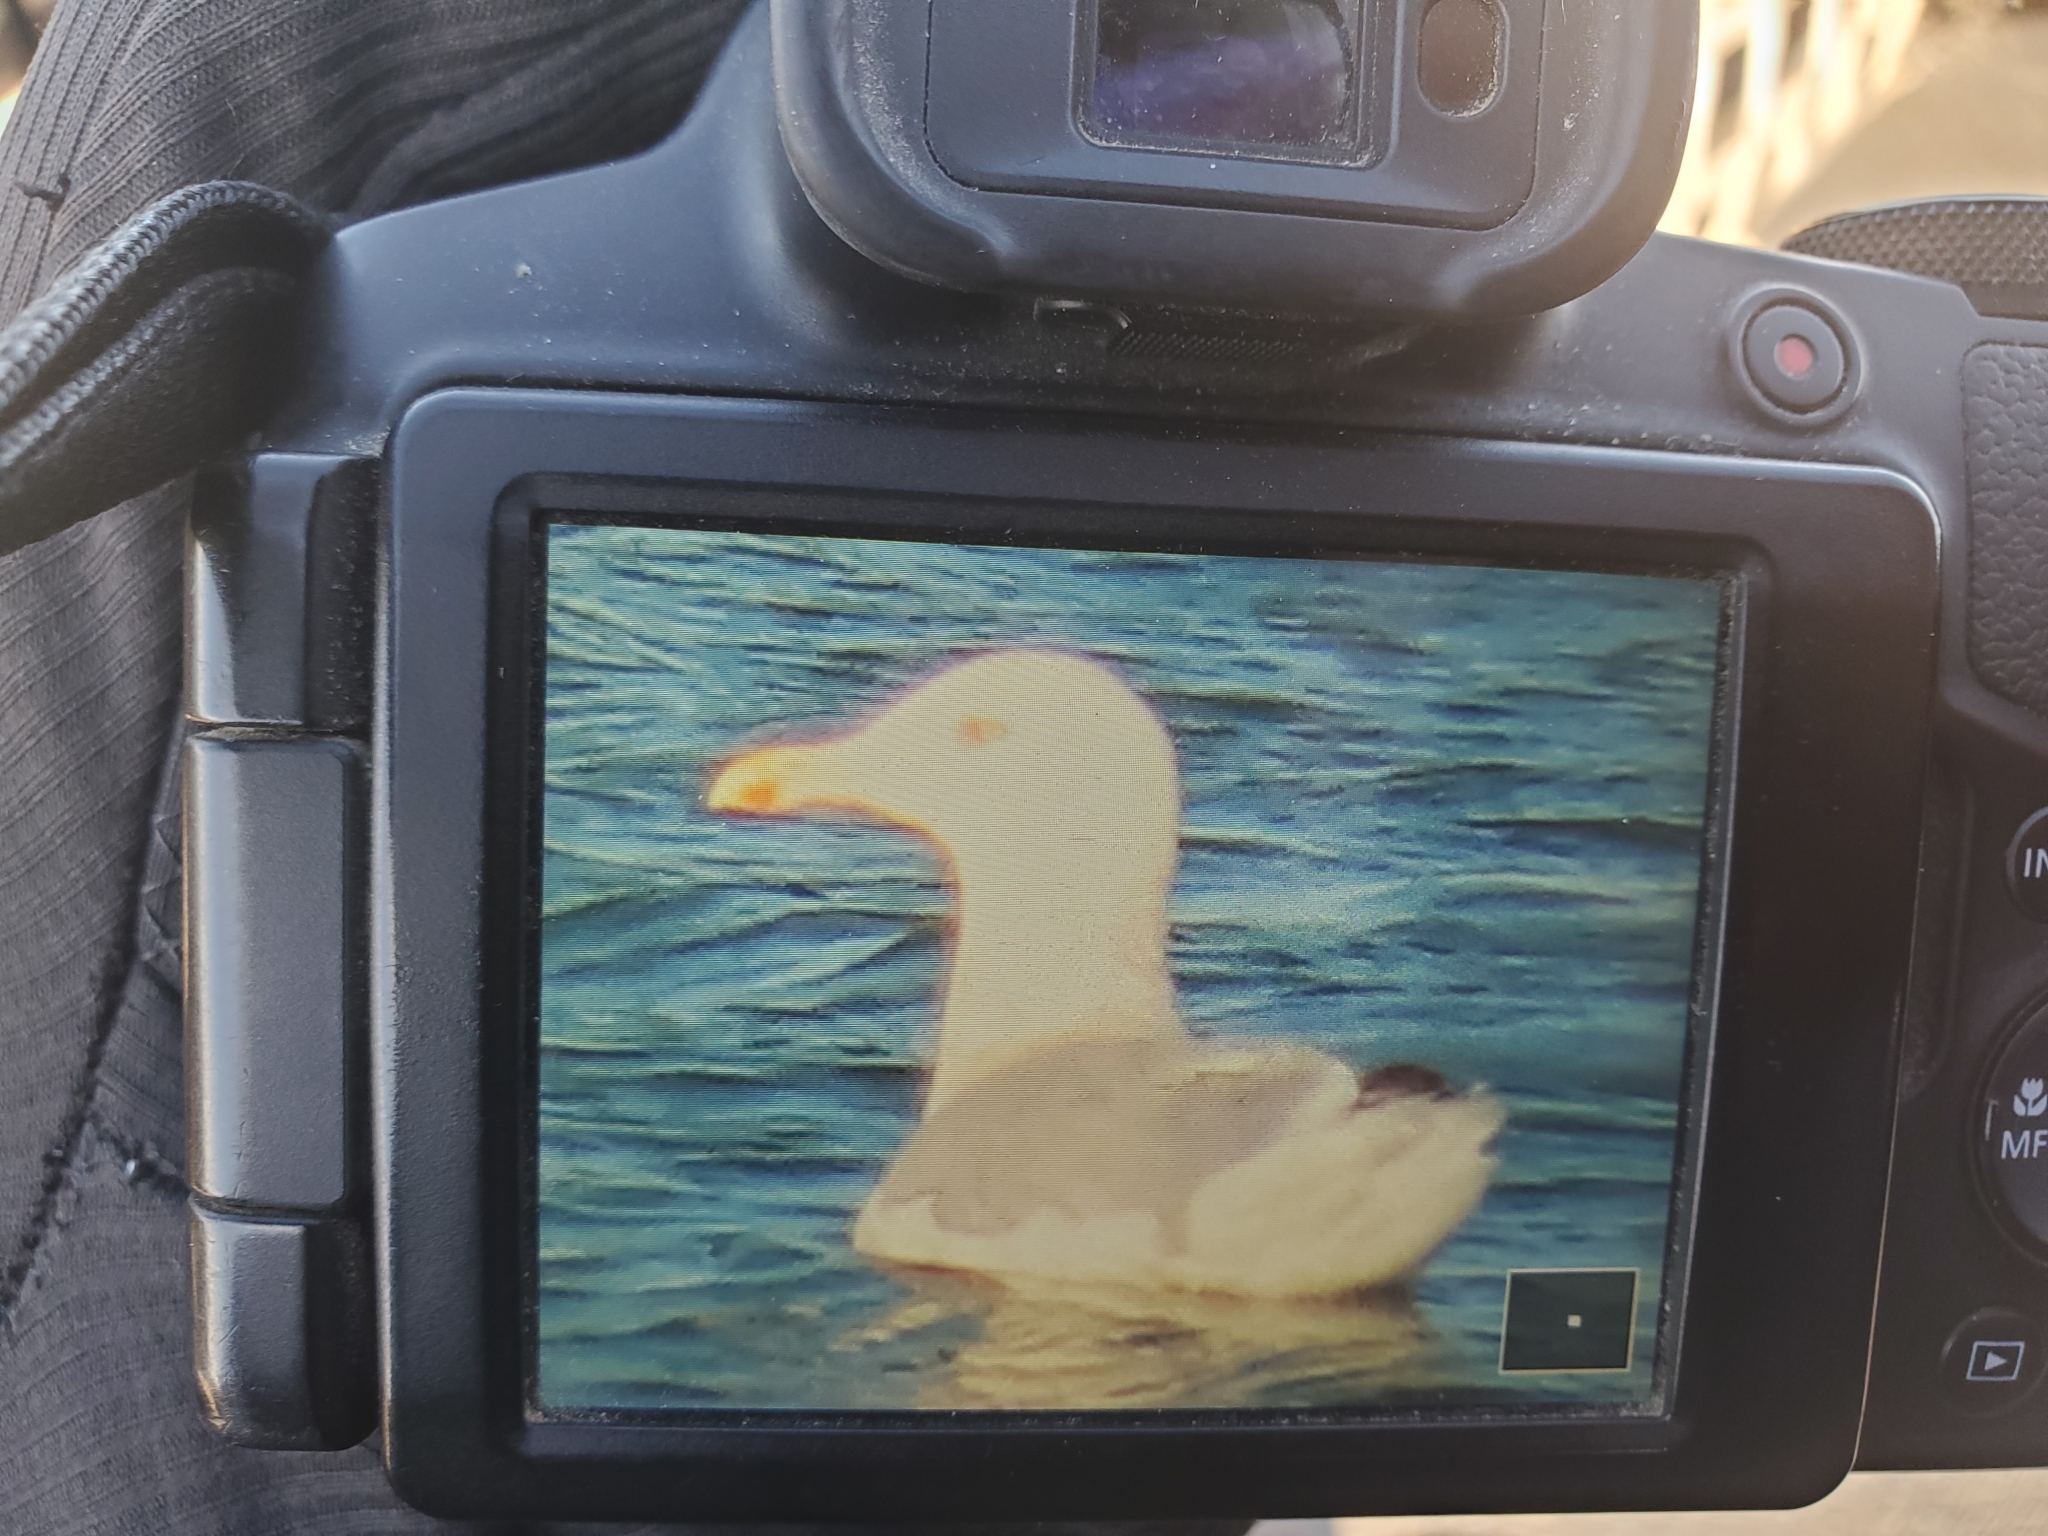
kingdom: Animalia
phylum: Chordata
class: Aves
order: Charadriiformes
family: Laridae
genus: Larus
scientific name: Larus argentatus
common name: Herring gull
